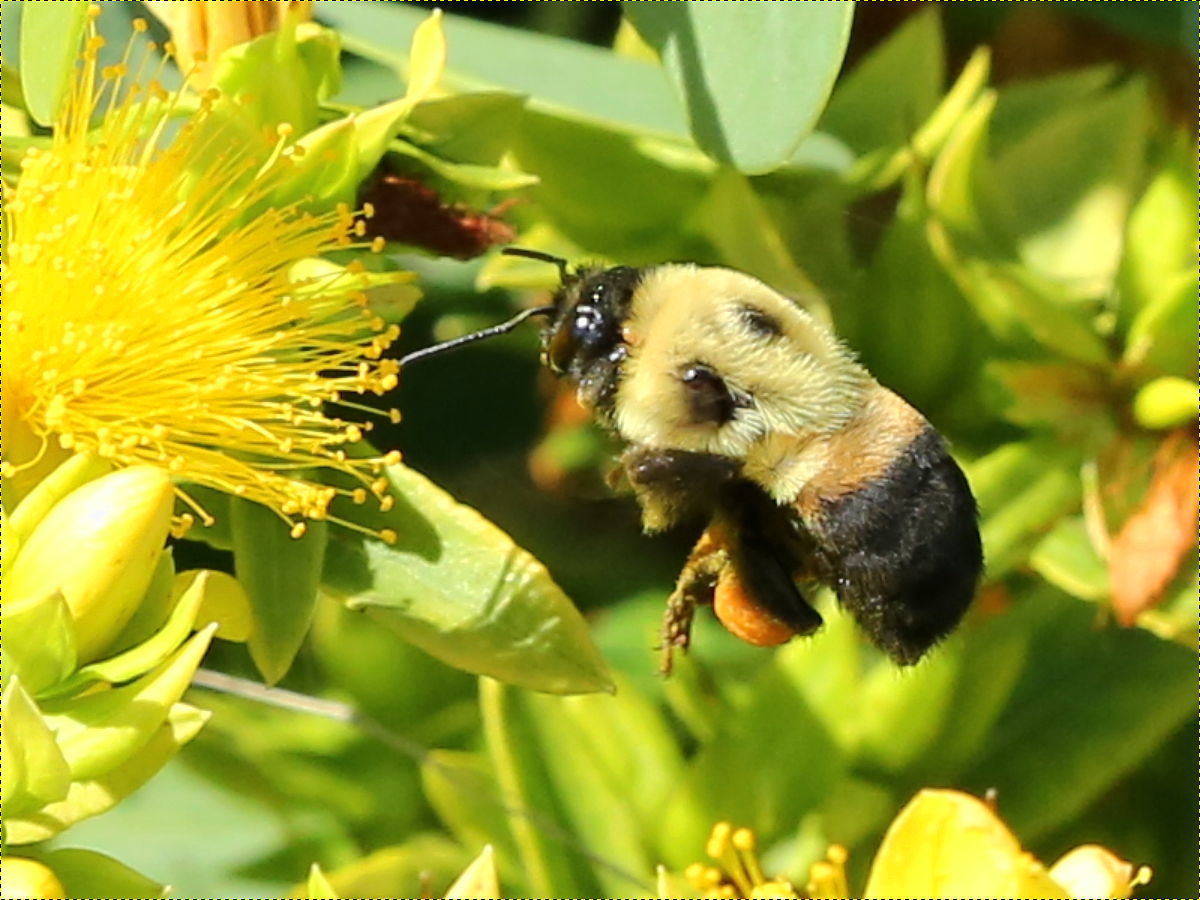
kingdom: Animalia
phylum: Arthropoda
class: Insecta
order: Hymenoptera
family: Apidae
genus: Bombus
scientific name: Bombus griseocollis
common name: Brown-belted bumble bee
